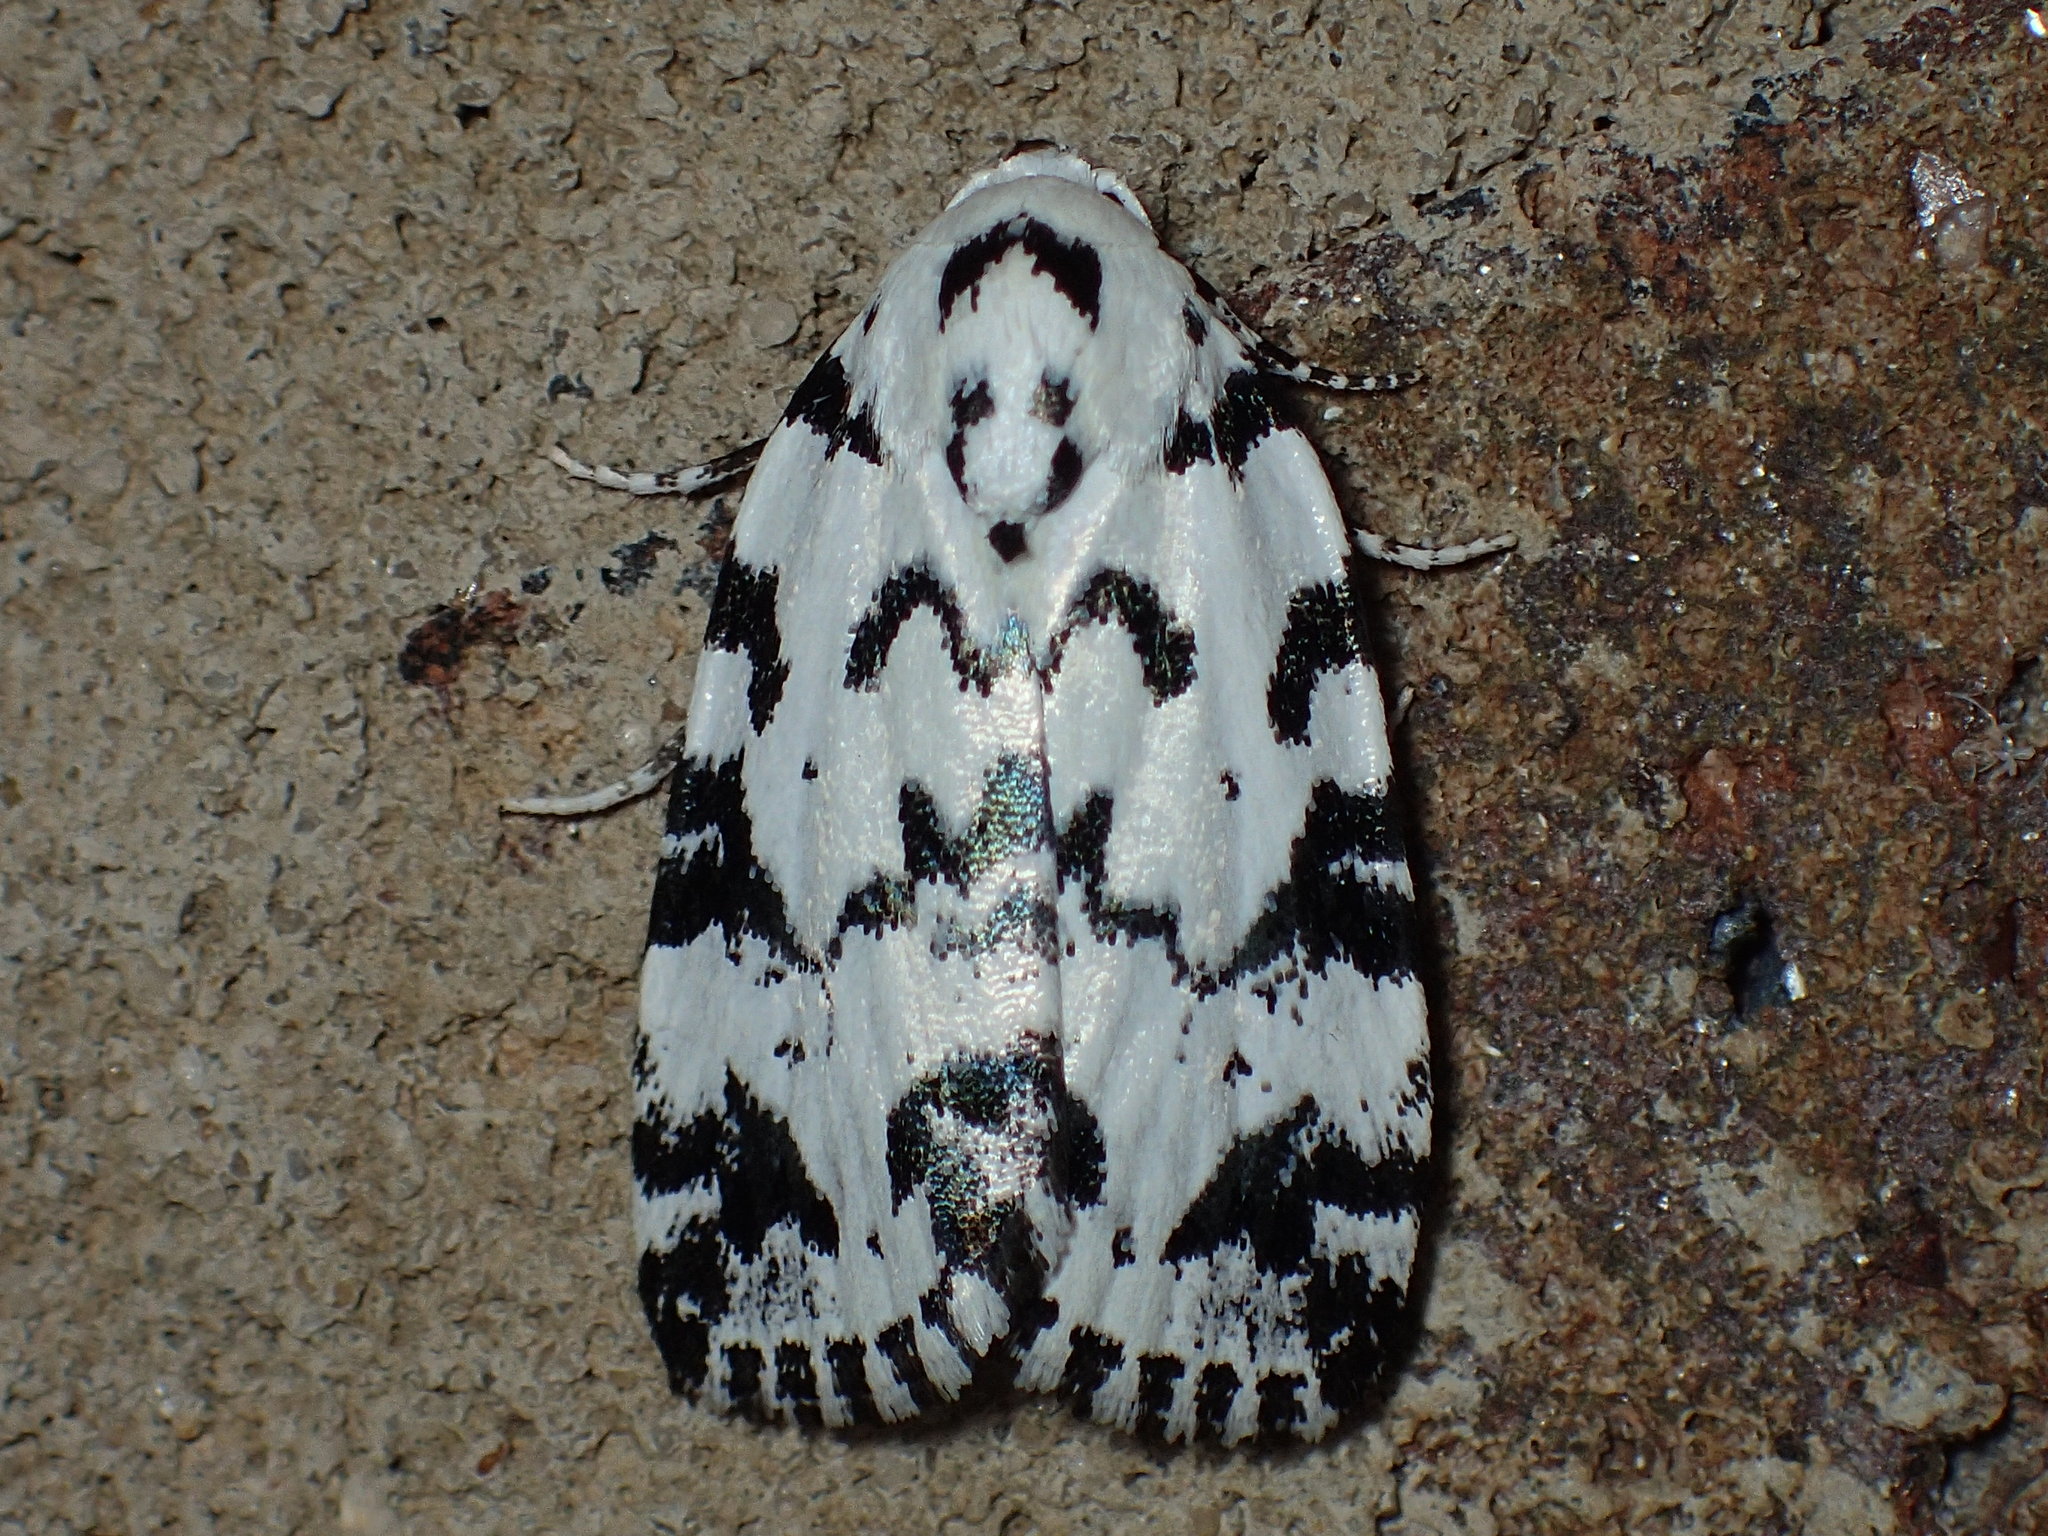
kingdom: Animalia
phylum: Arthropoda
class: Insecta
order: Lepidoptera
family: Noctuidae
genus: Polygrammate
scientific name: Polygrammate hebraeicum
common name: Hebrew moth
